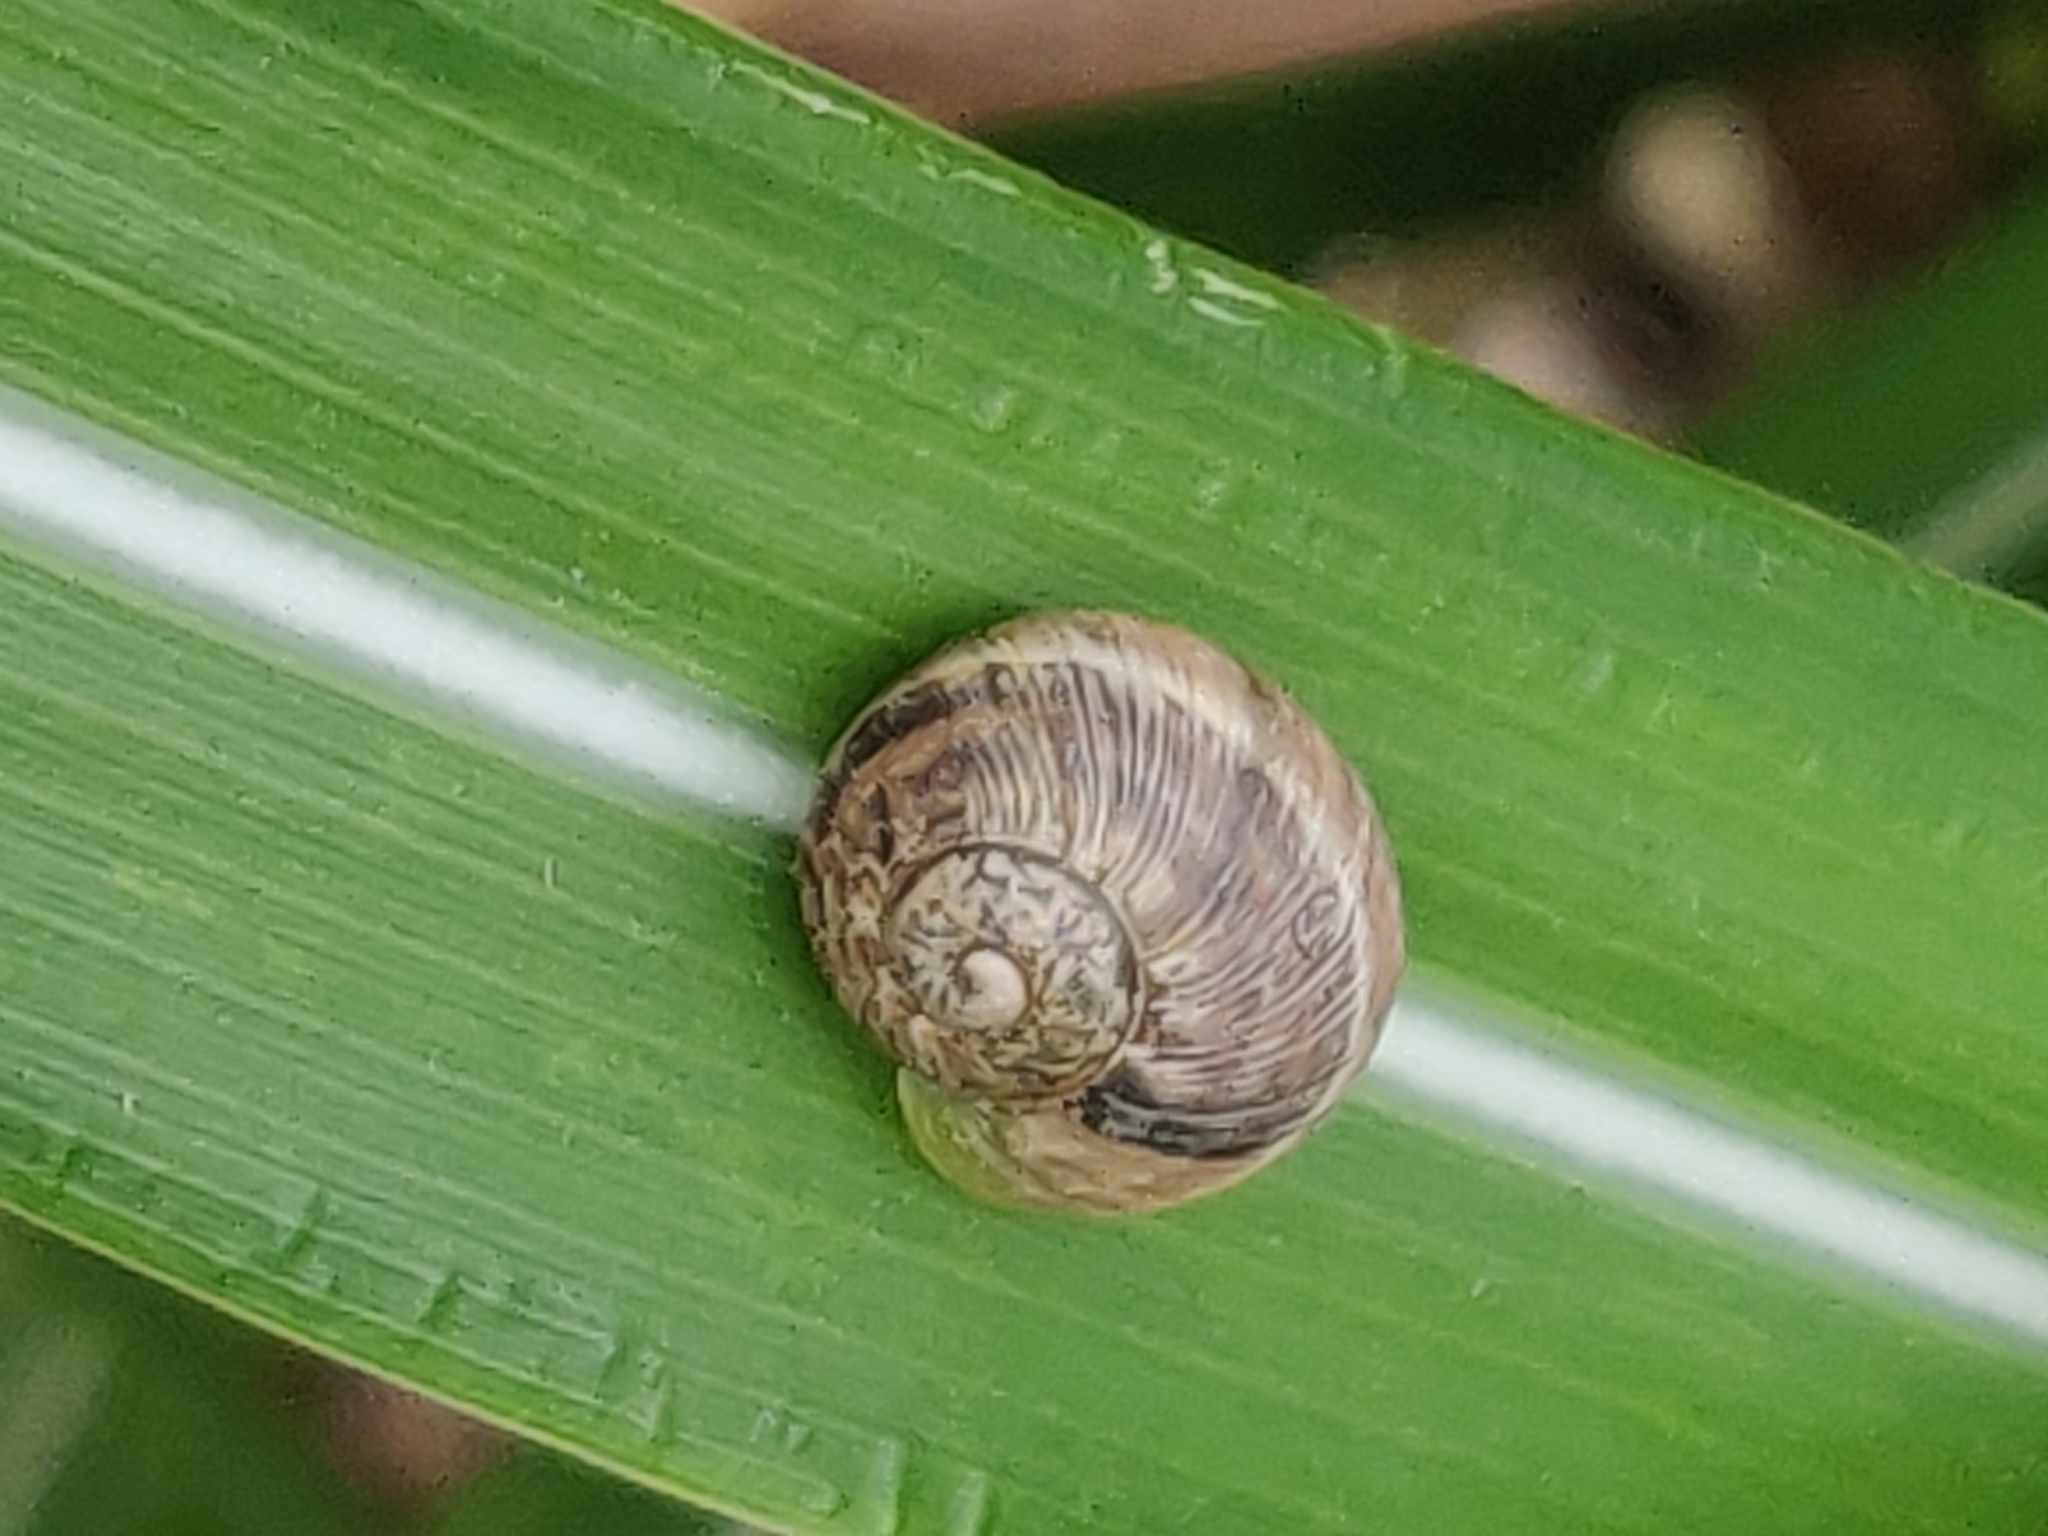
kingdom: Animalia
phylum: Mollusca
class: Gastropoda
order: Stylommatophora
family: Helicidae
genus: Cornu
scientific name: Cornu aspersum
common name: Brown garden snail
